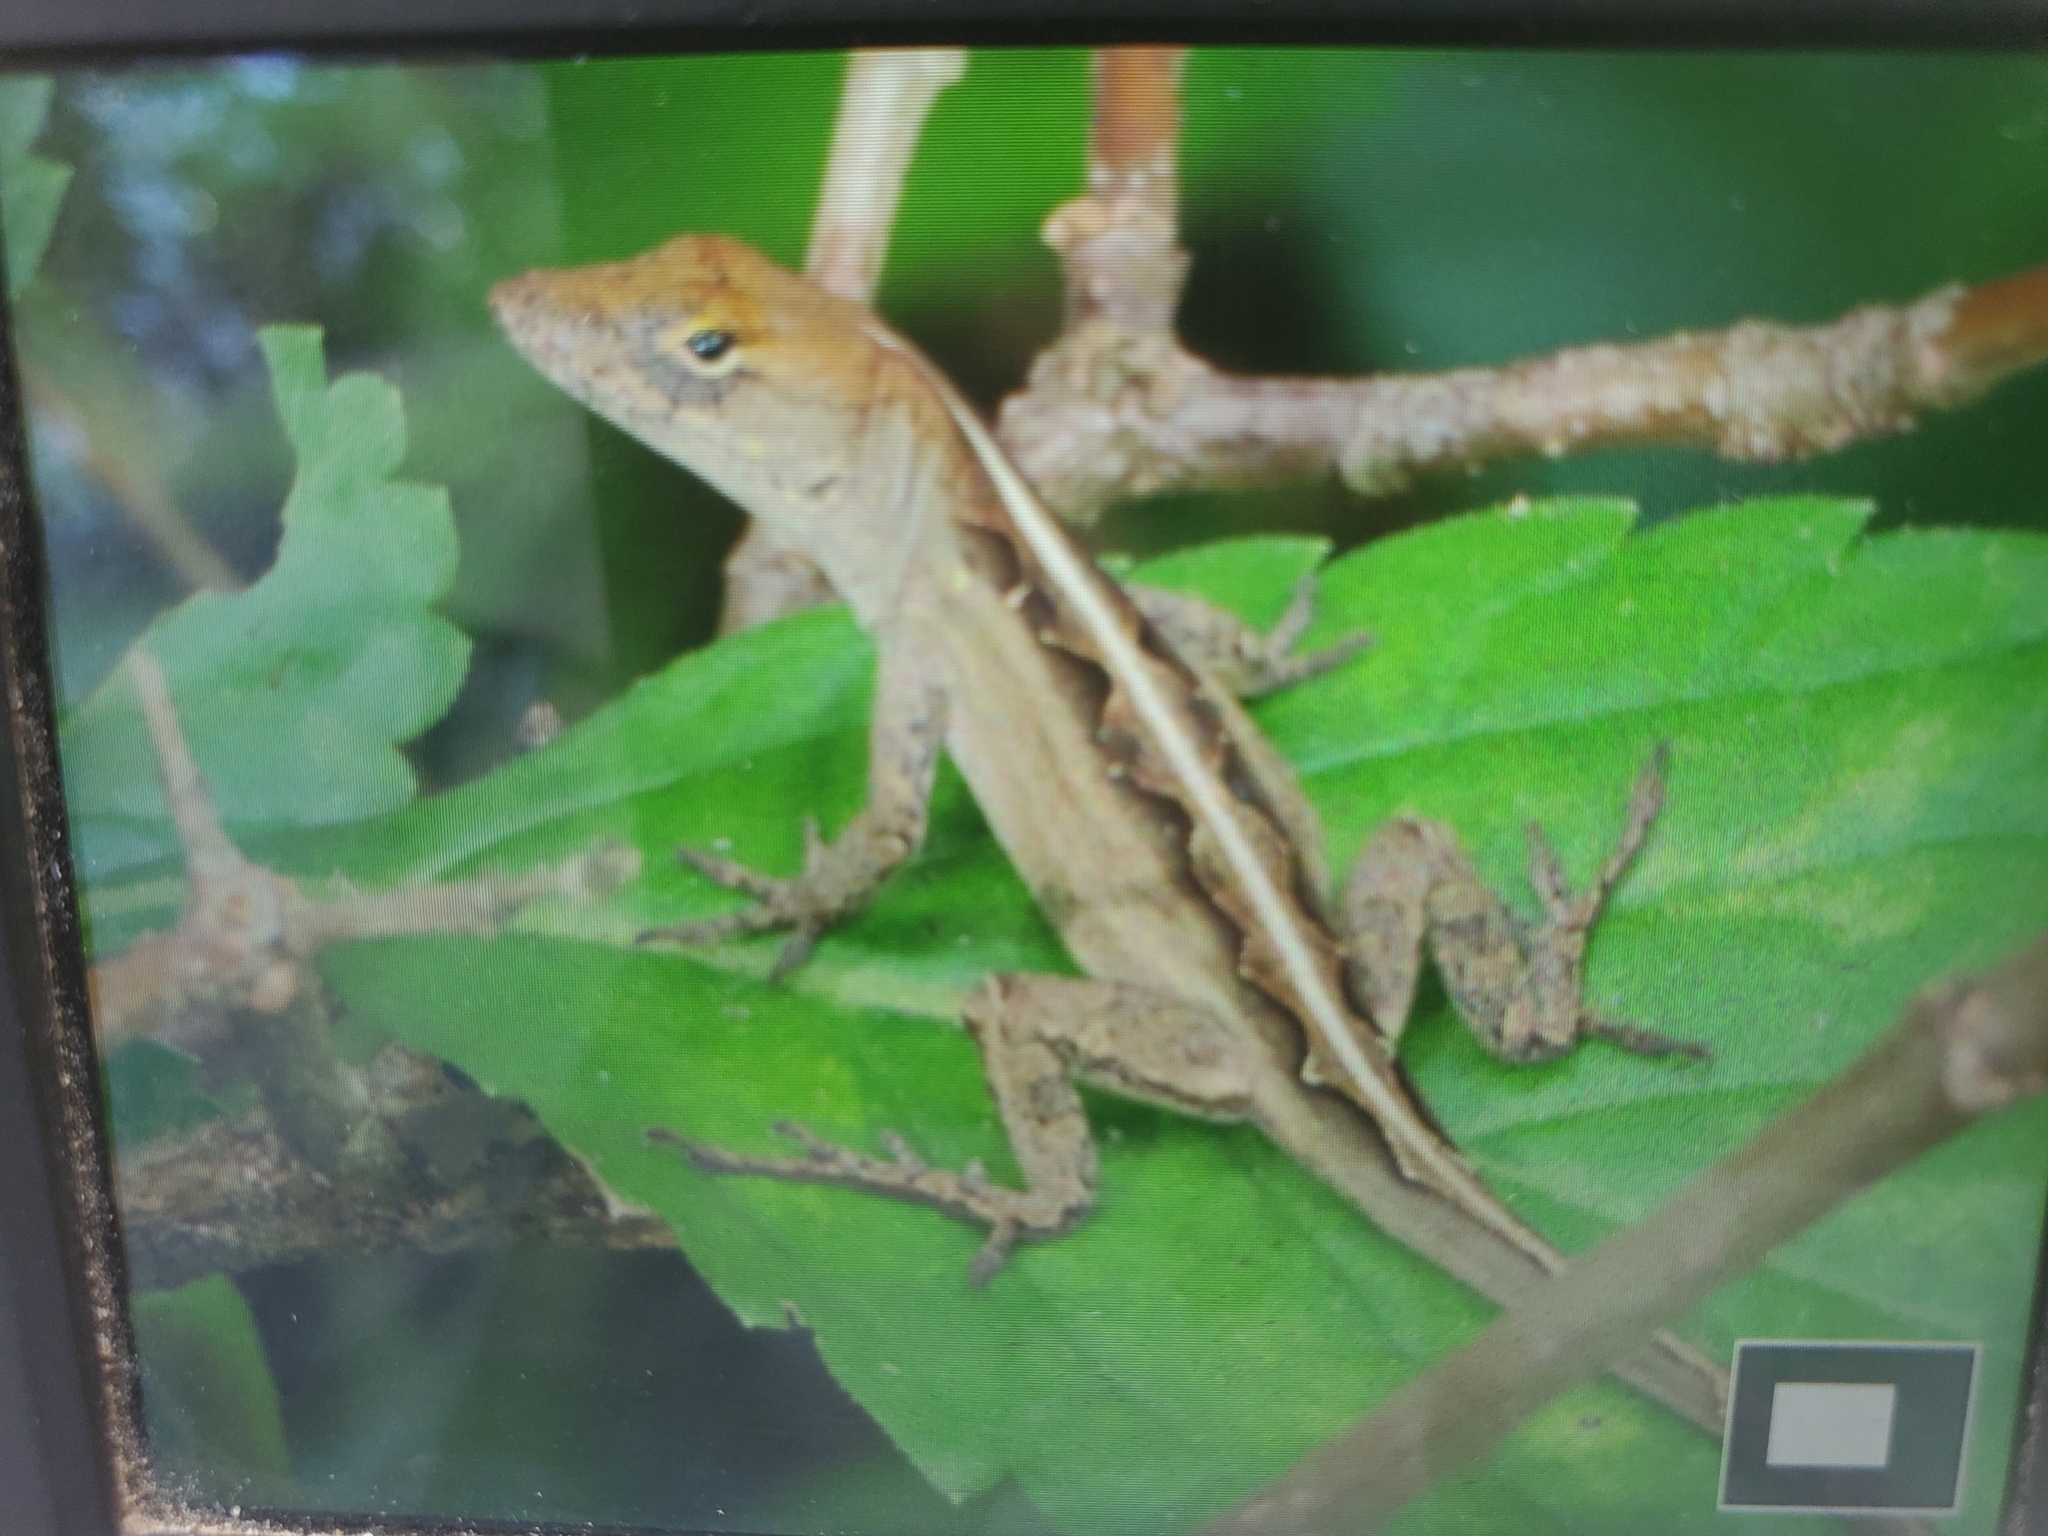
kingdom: Animalia
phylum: Chordata
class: Squamata
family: Dactyloidae
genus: Anolis
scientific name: Anolis sagrei
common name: Brown anole
